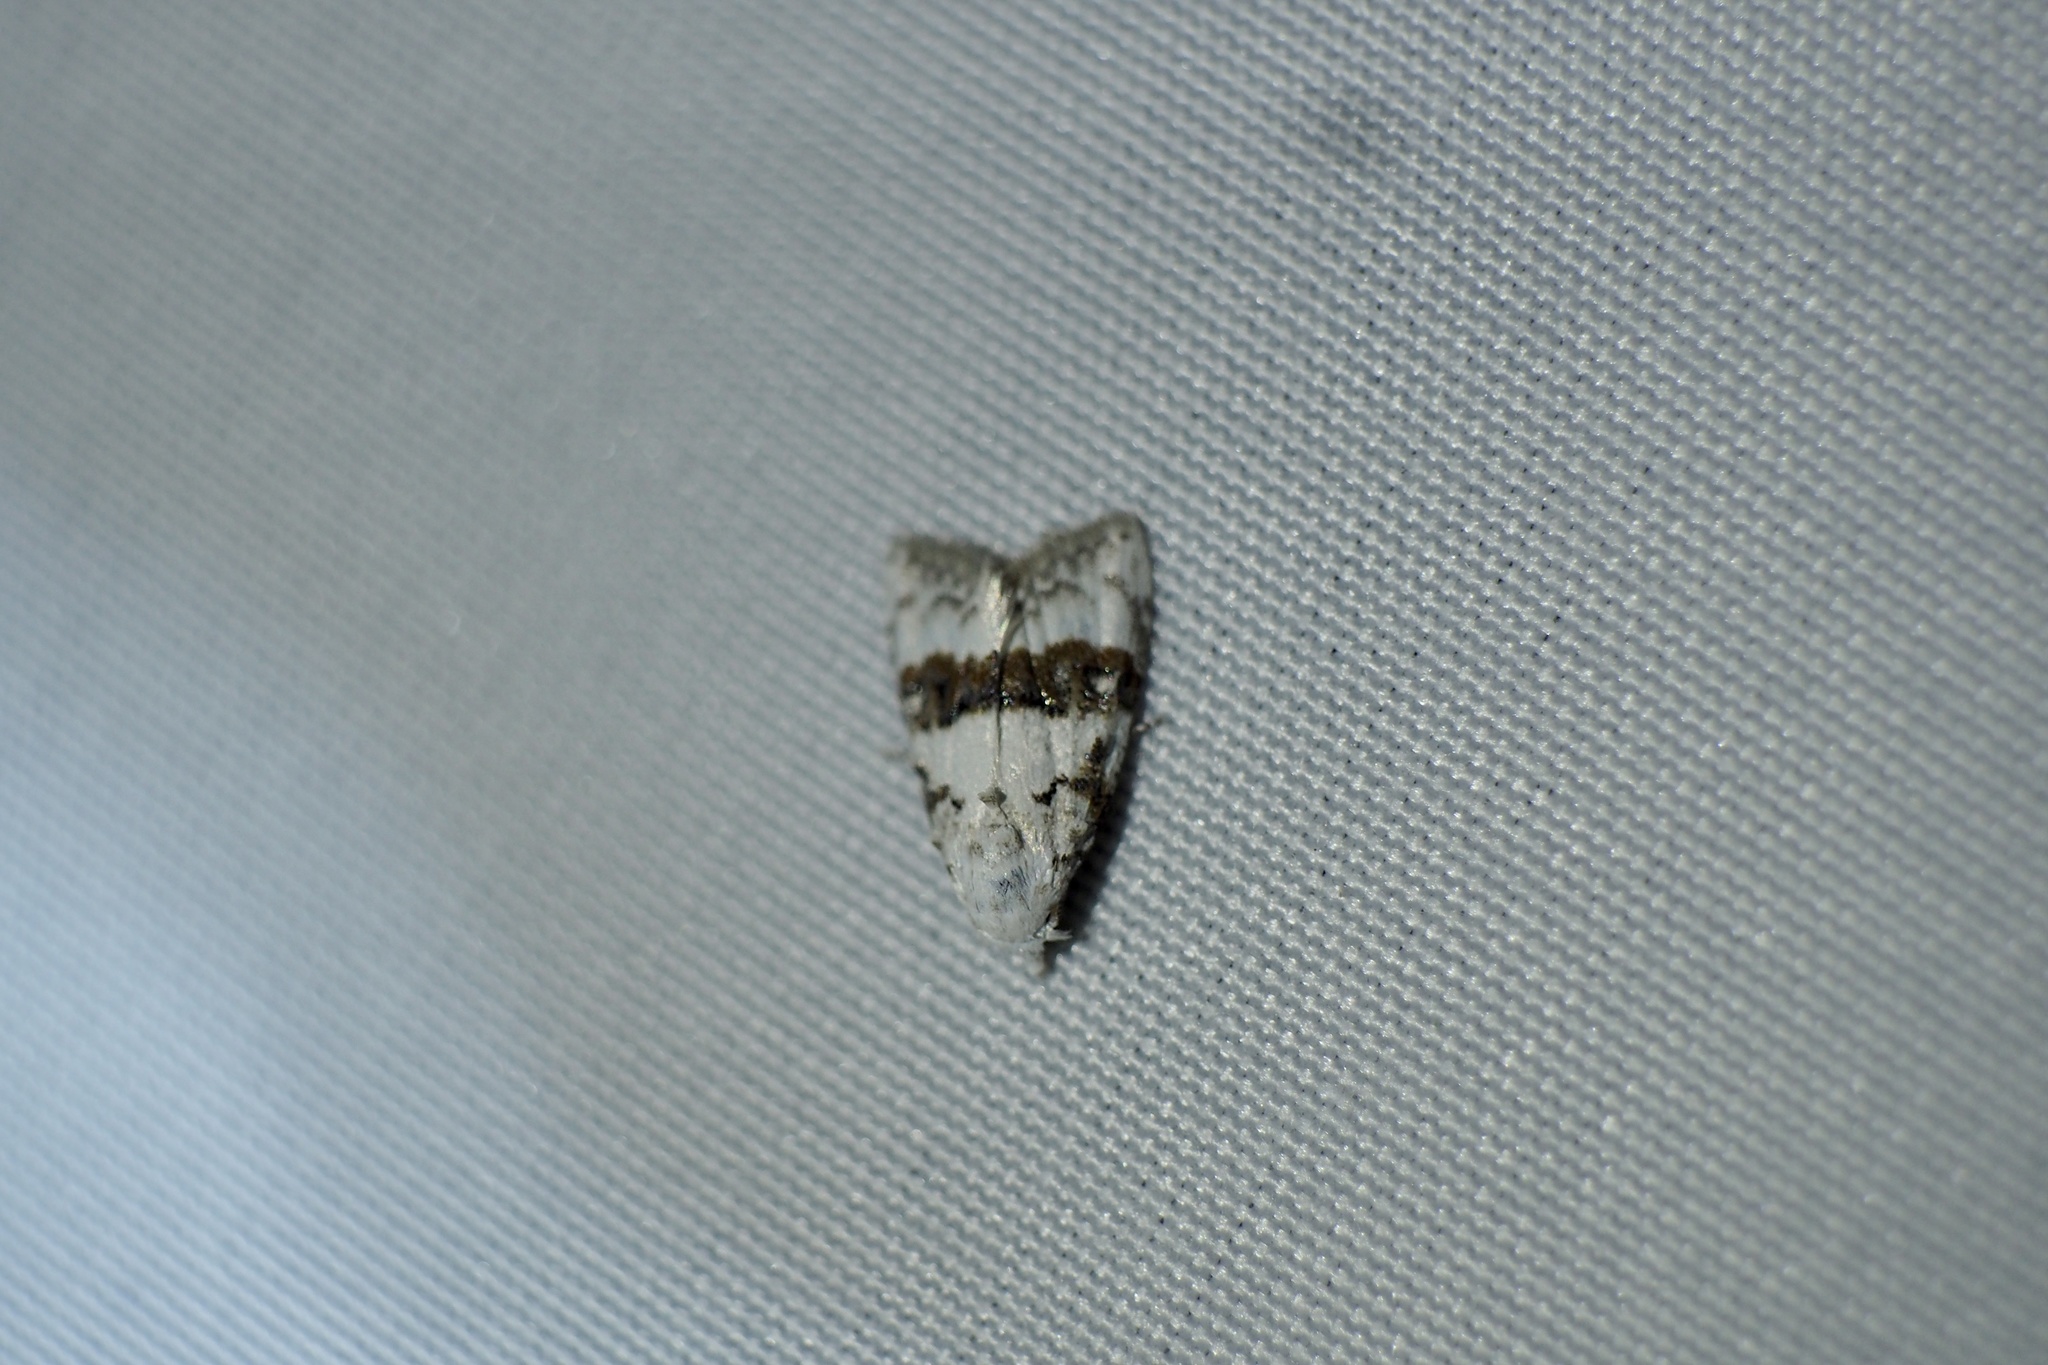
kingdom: Animalia
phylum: Arthropoda
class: Insecta
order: Lepidoptera
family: Nolidae
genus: Nola
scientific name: Nola taeniata
